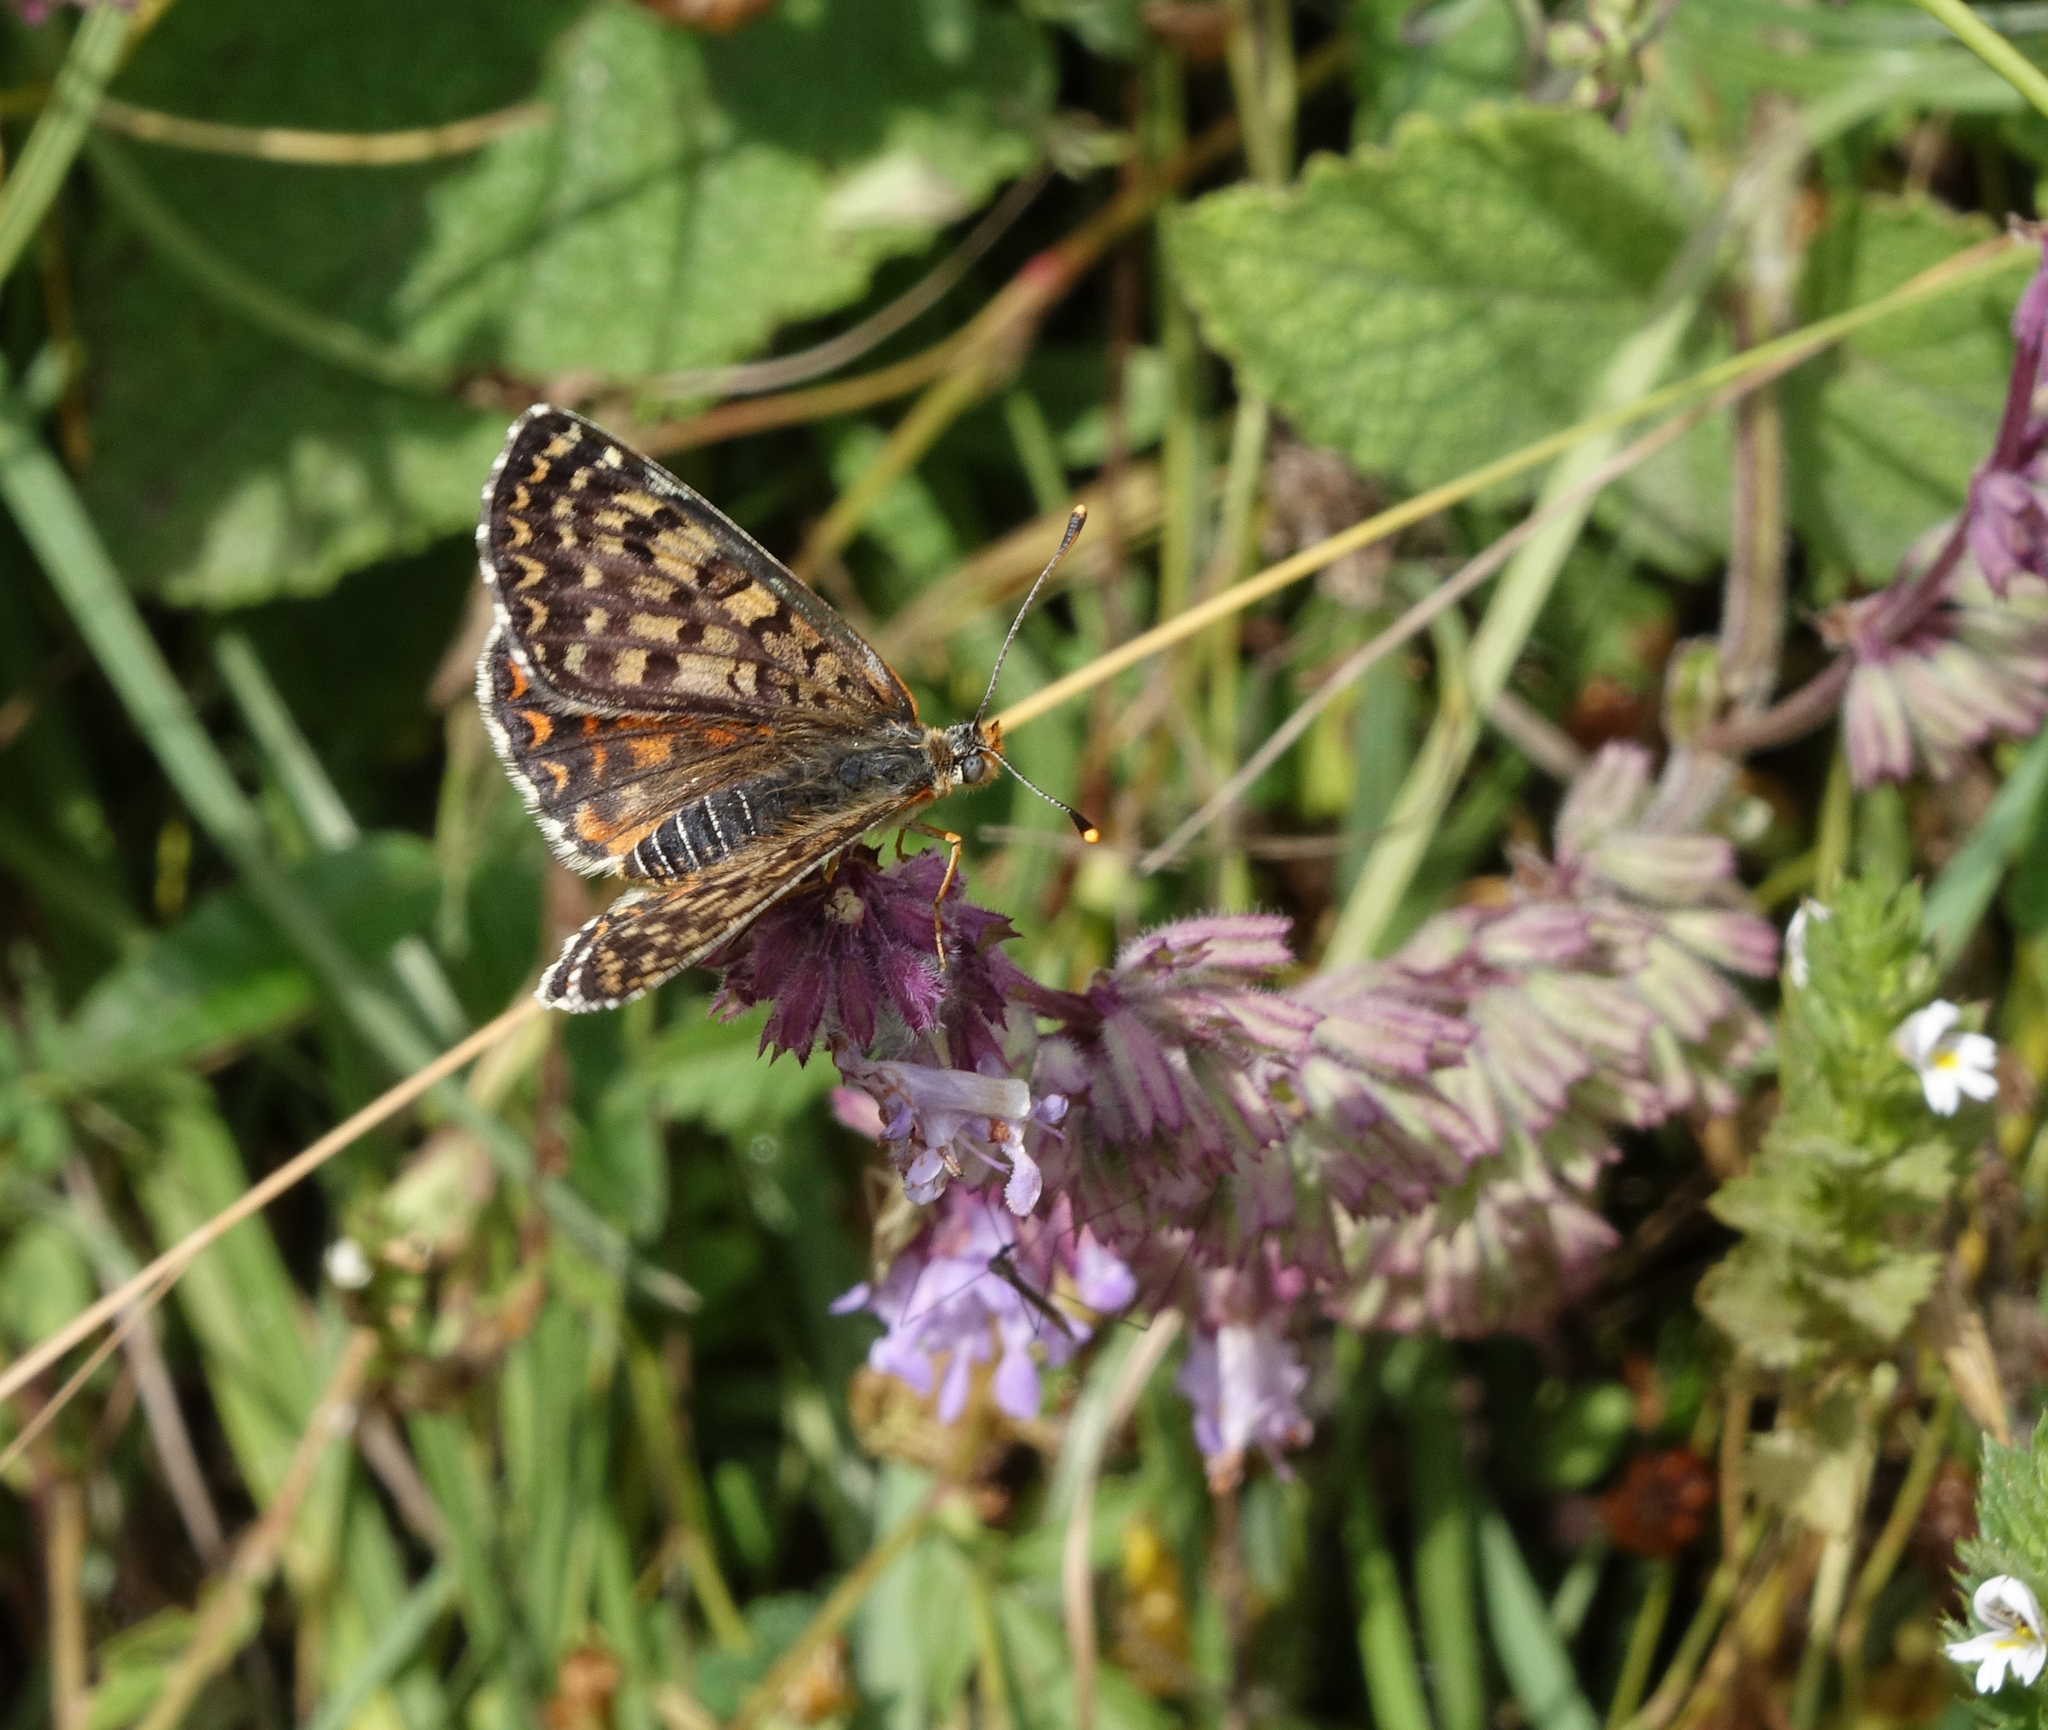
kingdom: Plantae
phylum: Tracheophyta
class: Magnoliopsida
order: Lamiales
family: Lamiaceae
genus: Salvia
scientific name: Salvia verticillata
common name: Whorled clary
